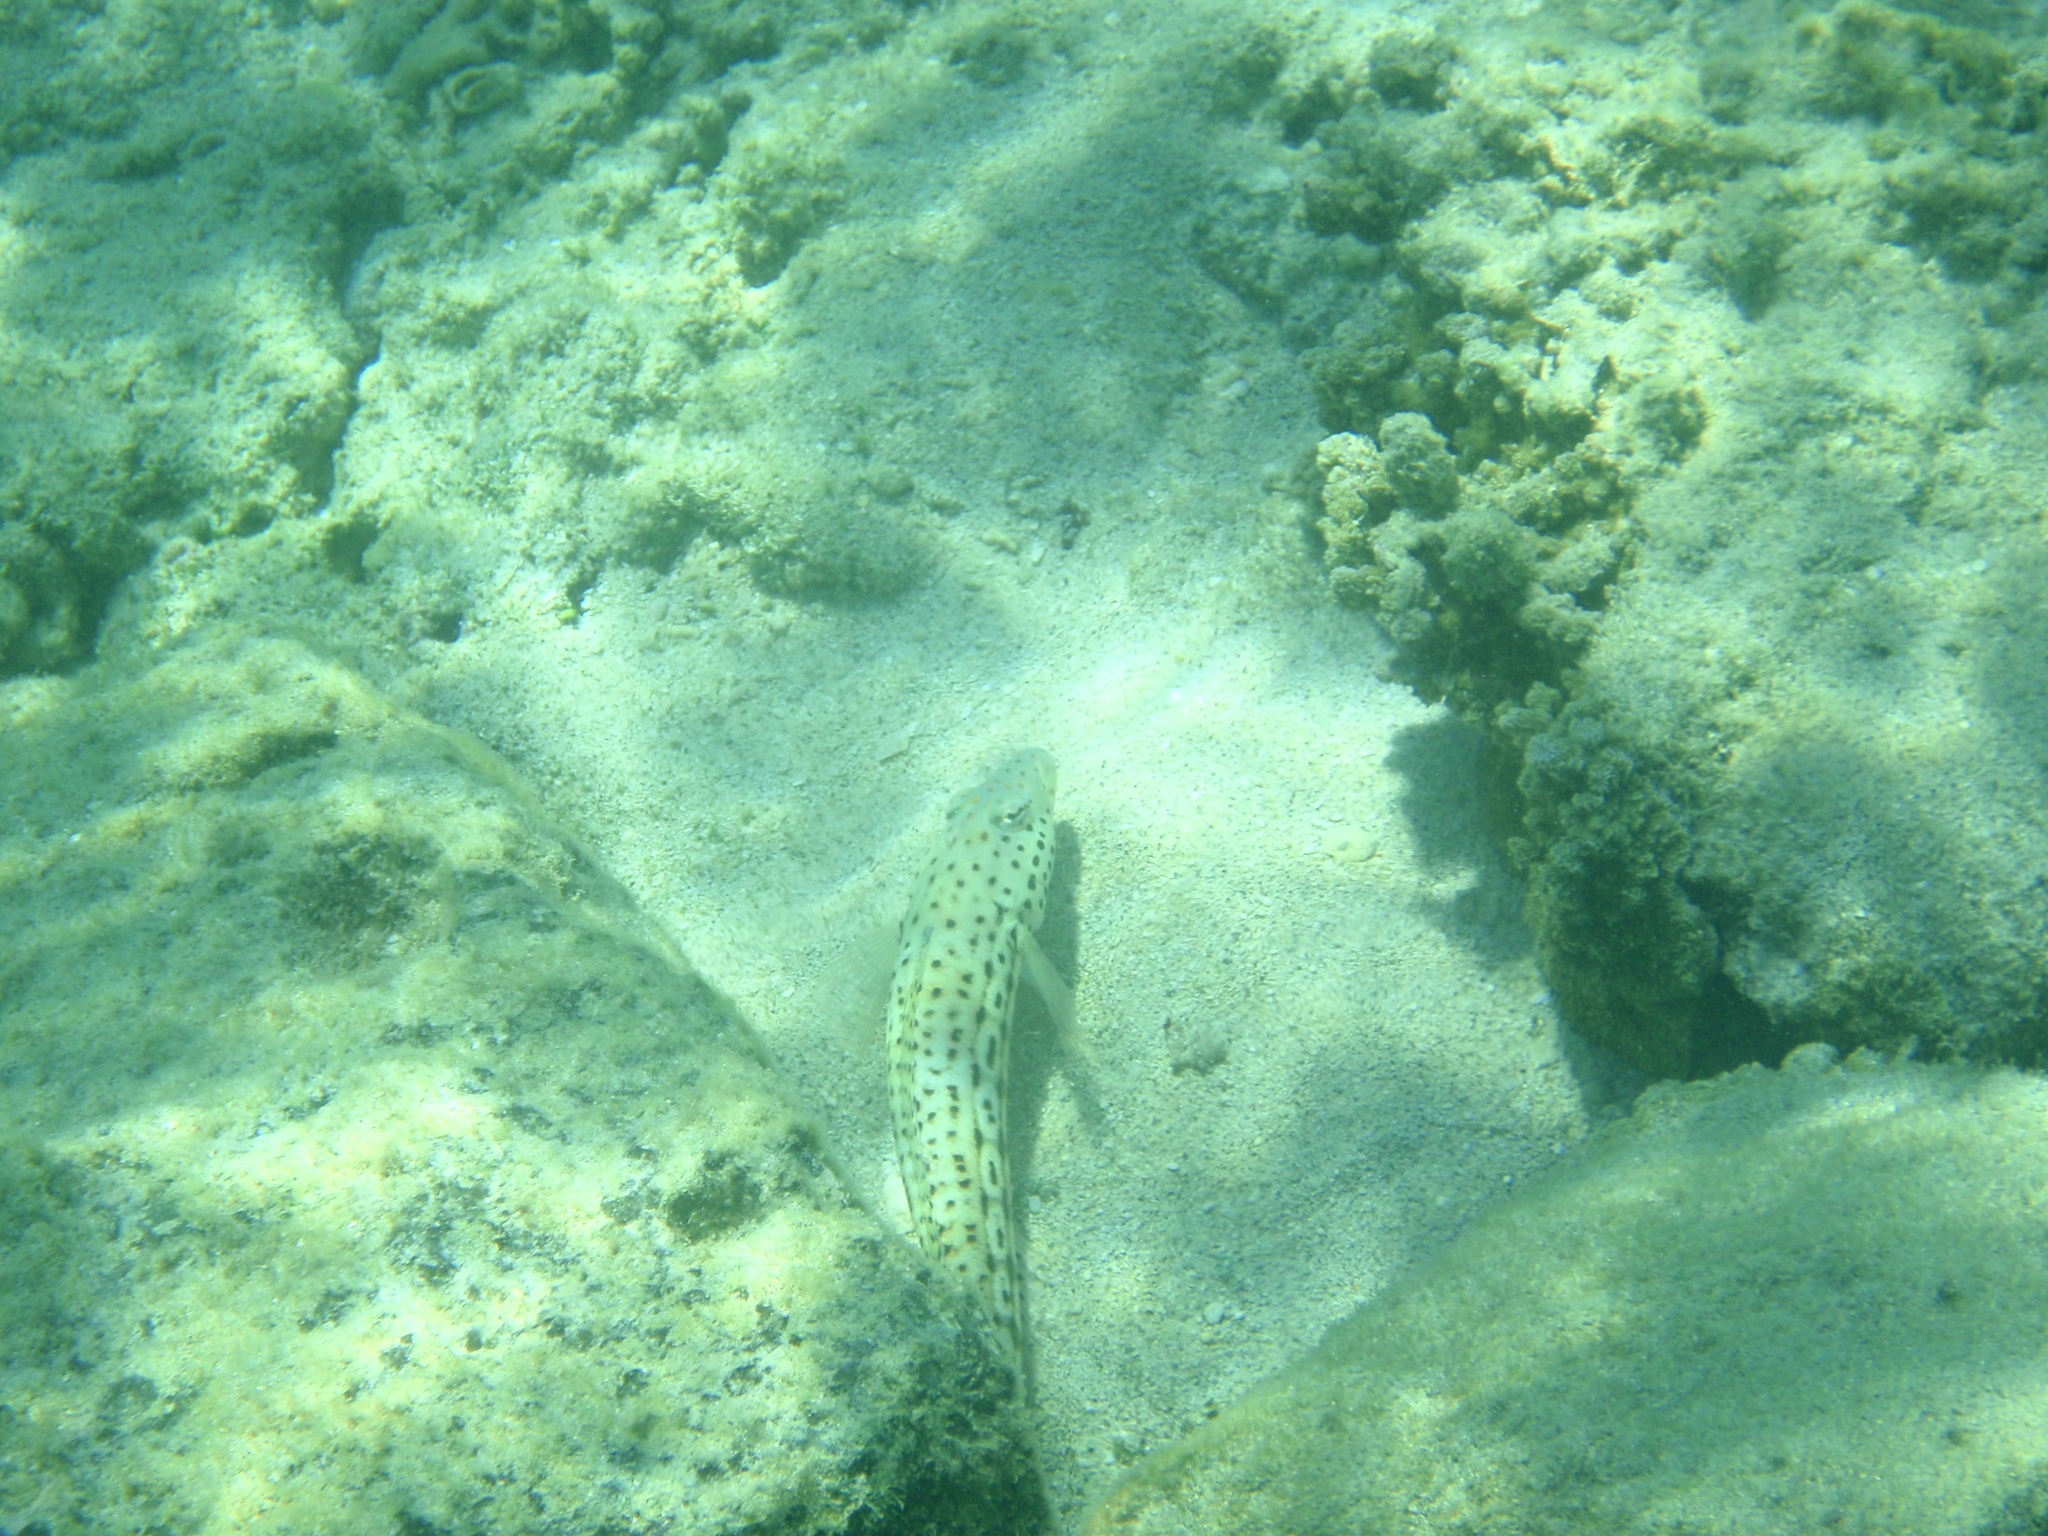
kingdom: Animalia
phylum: Chordata
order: Perciformes
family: Pinguipedidae
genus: Parapercis
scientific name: Parapercis xanthogramma
